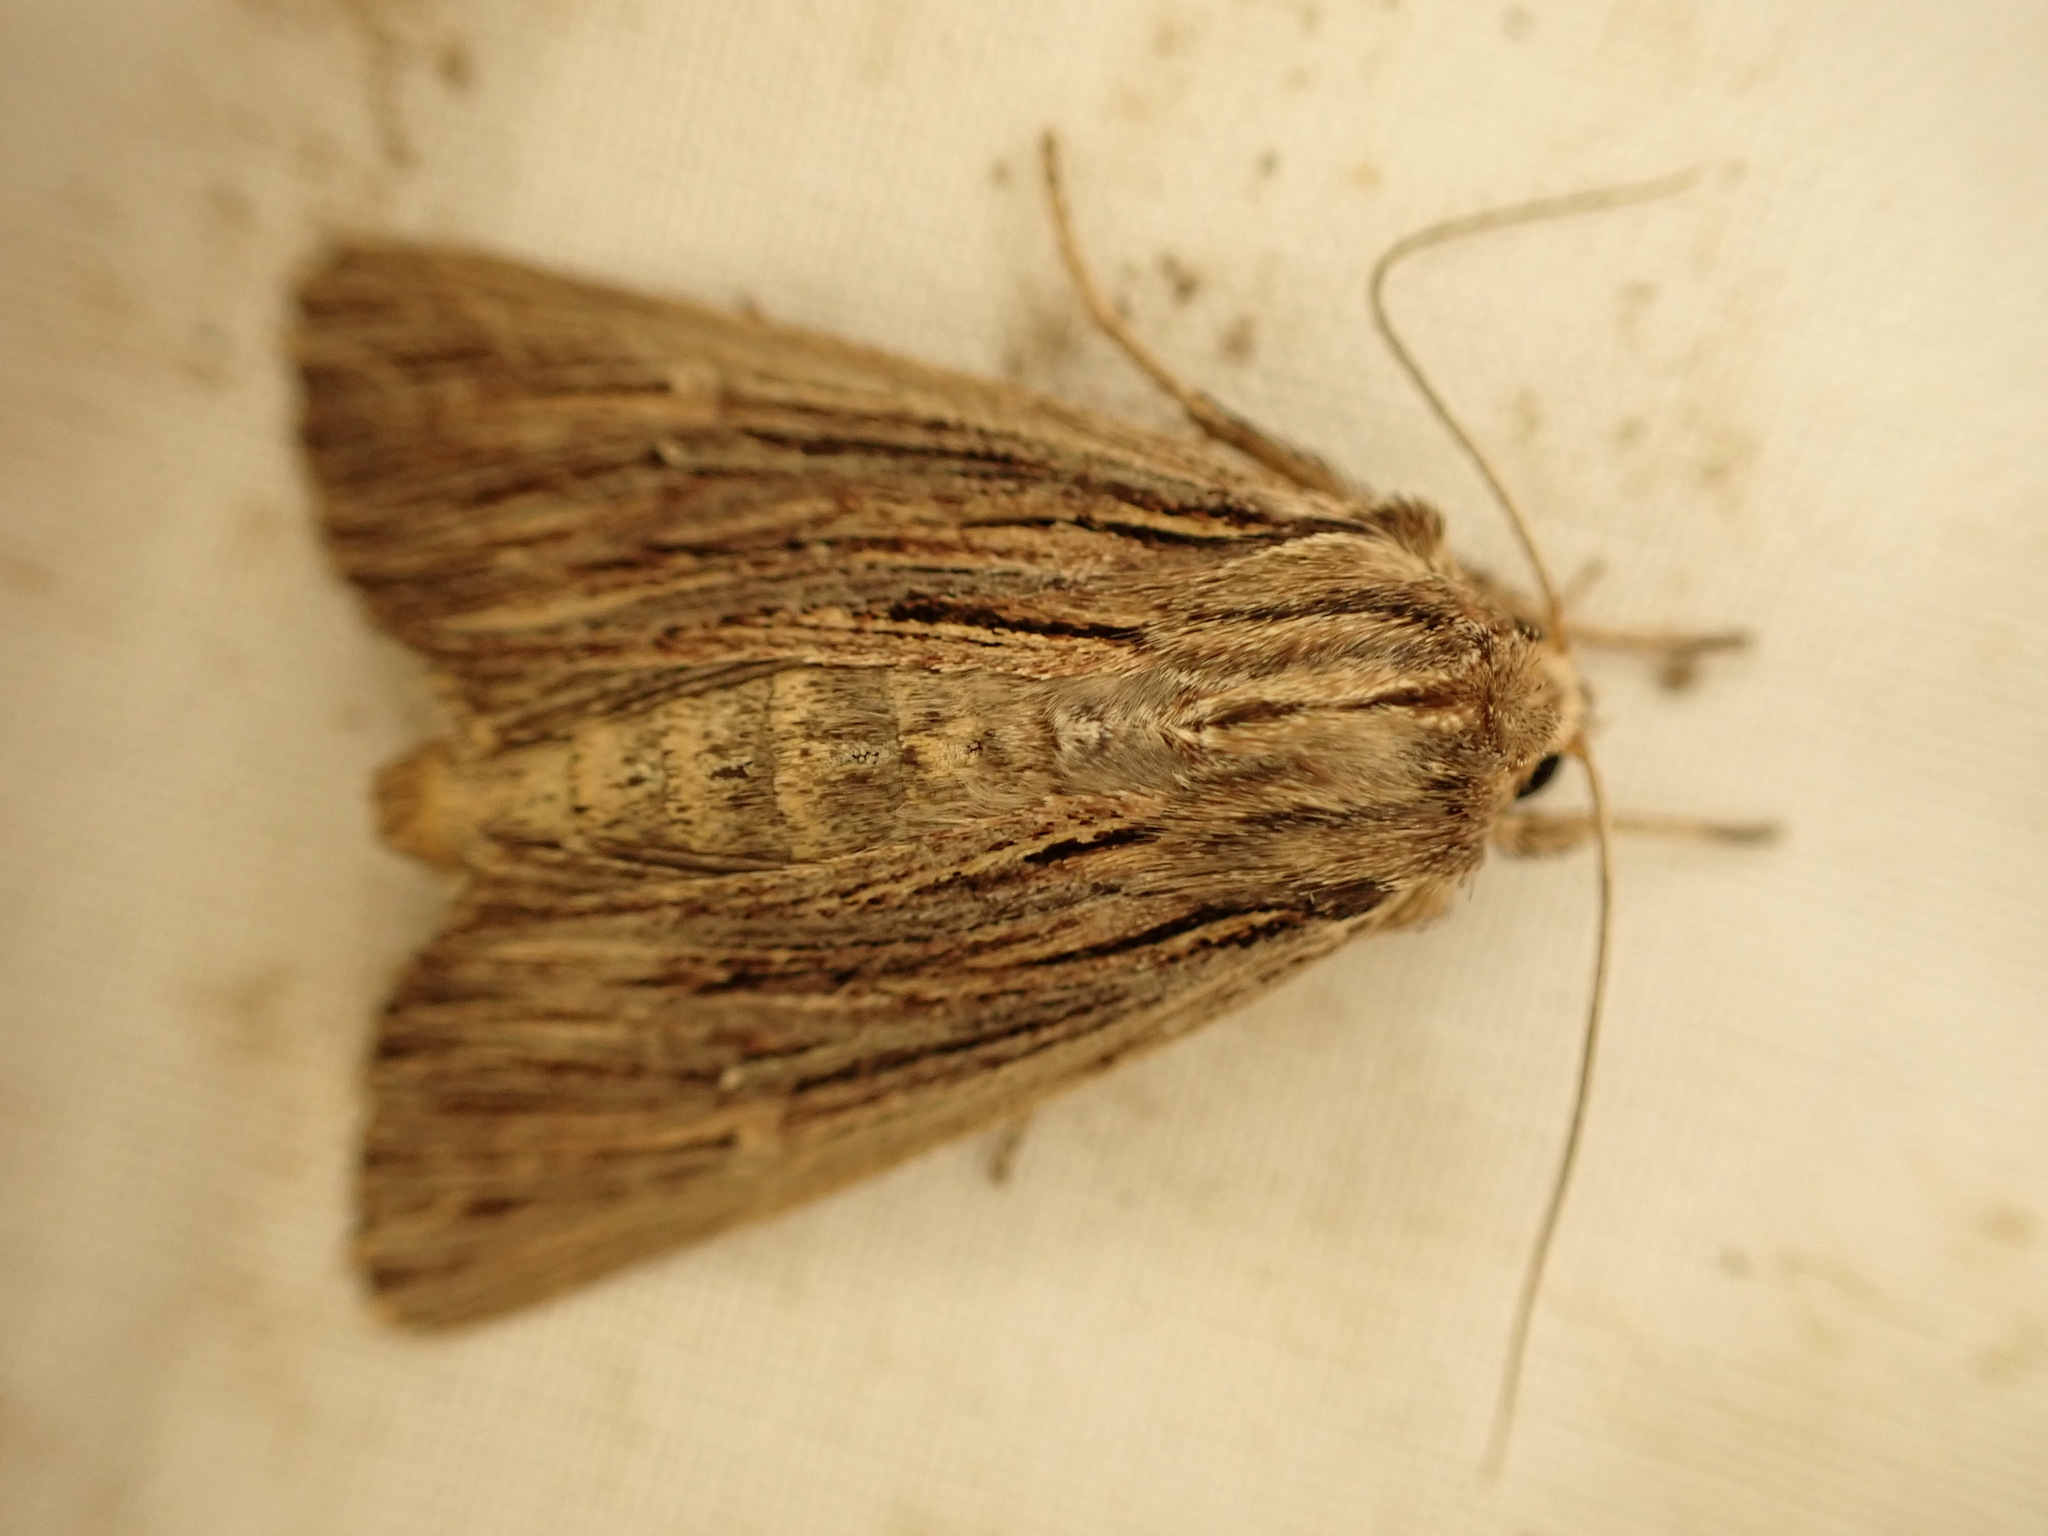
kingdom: Animalia
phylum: Arthropoda
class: Insecta
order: Lepidoptera
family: Noctuidae
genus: Ichneutica
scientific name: Ichneutica
